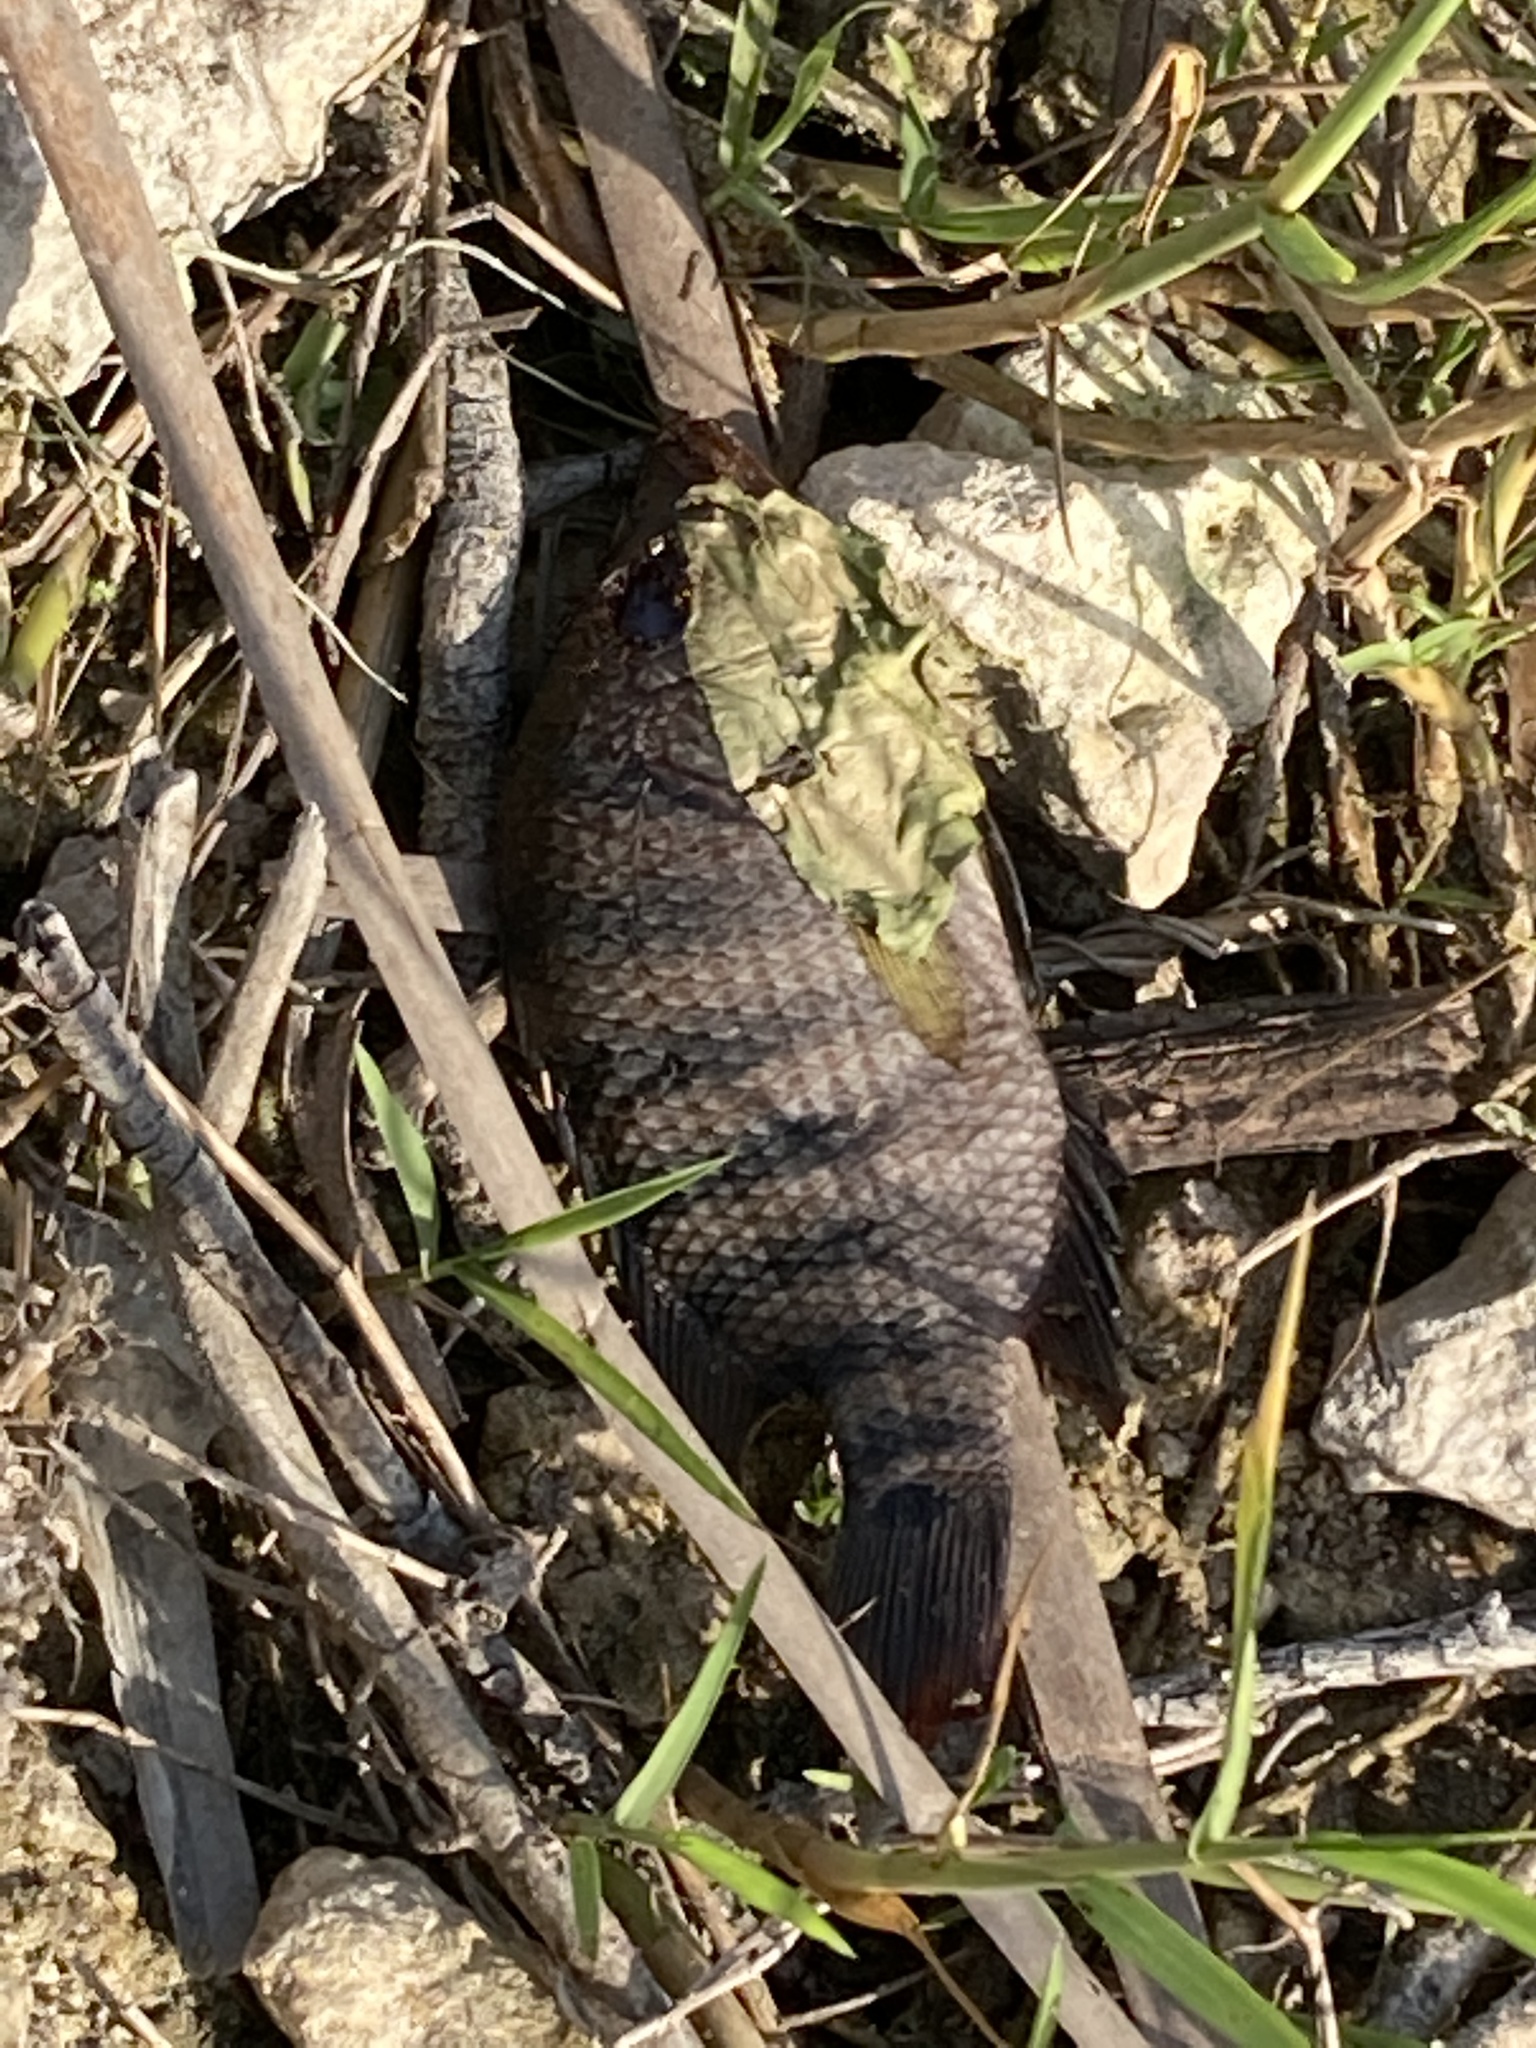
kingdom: Animalia
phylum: Chordata
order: Perciformes
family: Cichlidae
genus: Mayaheros
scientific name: Mayaheros urophthalmus
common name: Mayan cichlid
